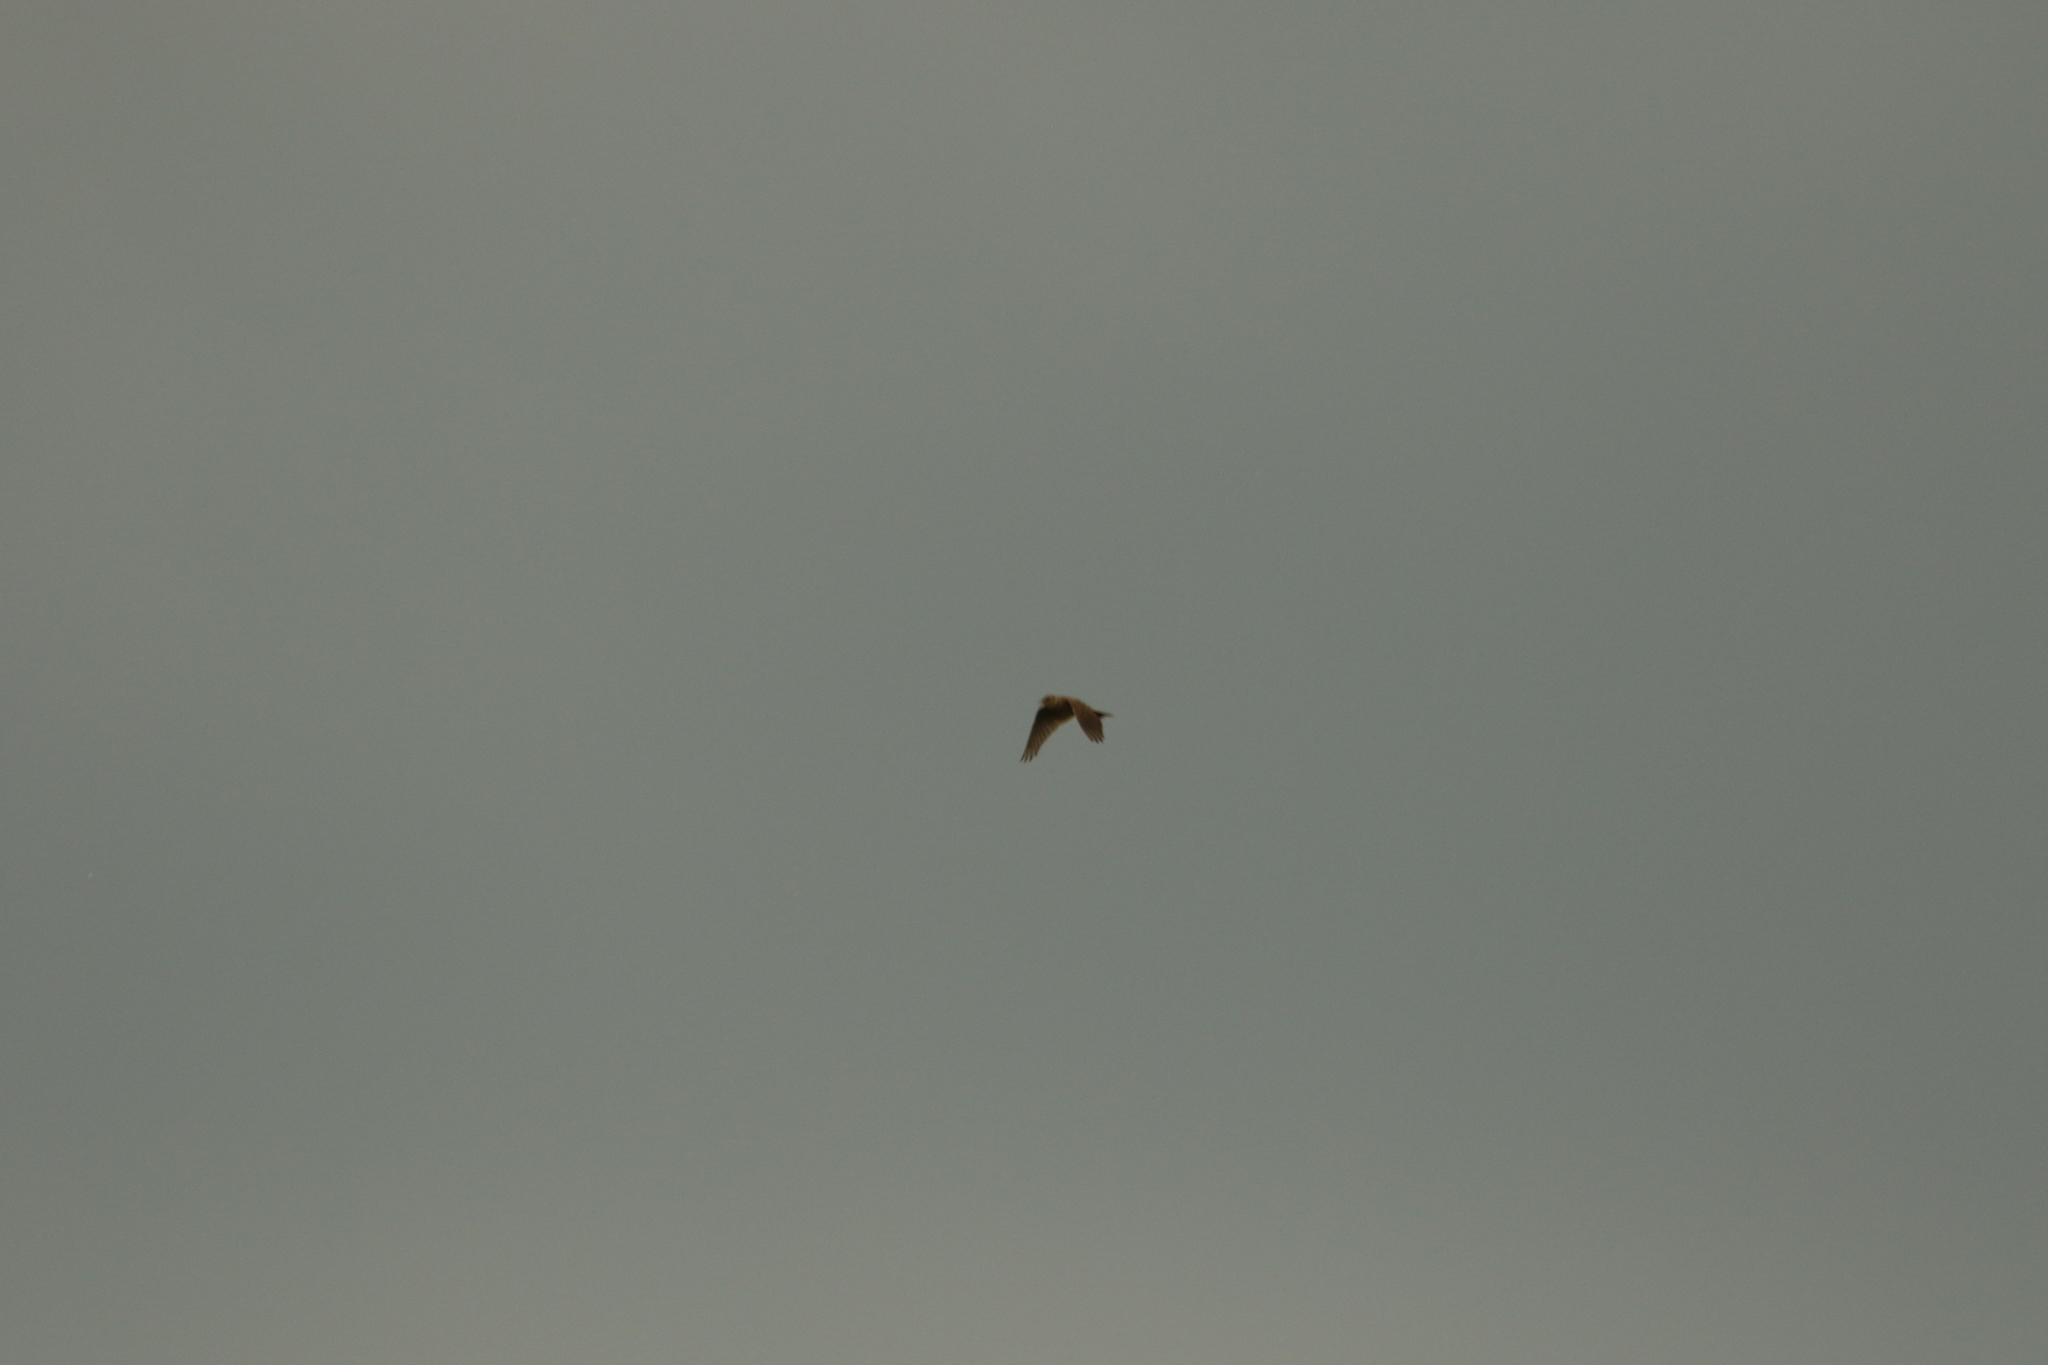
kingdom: Animalia
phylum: Chordata
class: Aves
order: Passeriformes
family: Alaudidae
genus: Alauda
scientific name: Alauda arvensis
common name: Eurasian skylark
